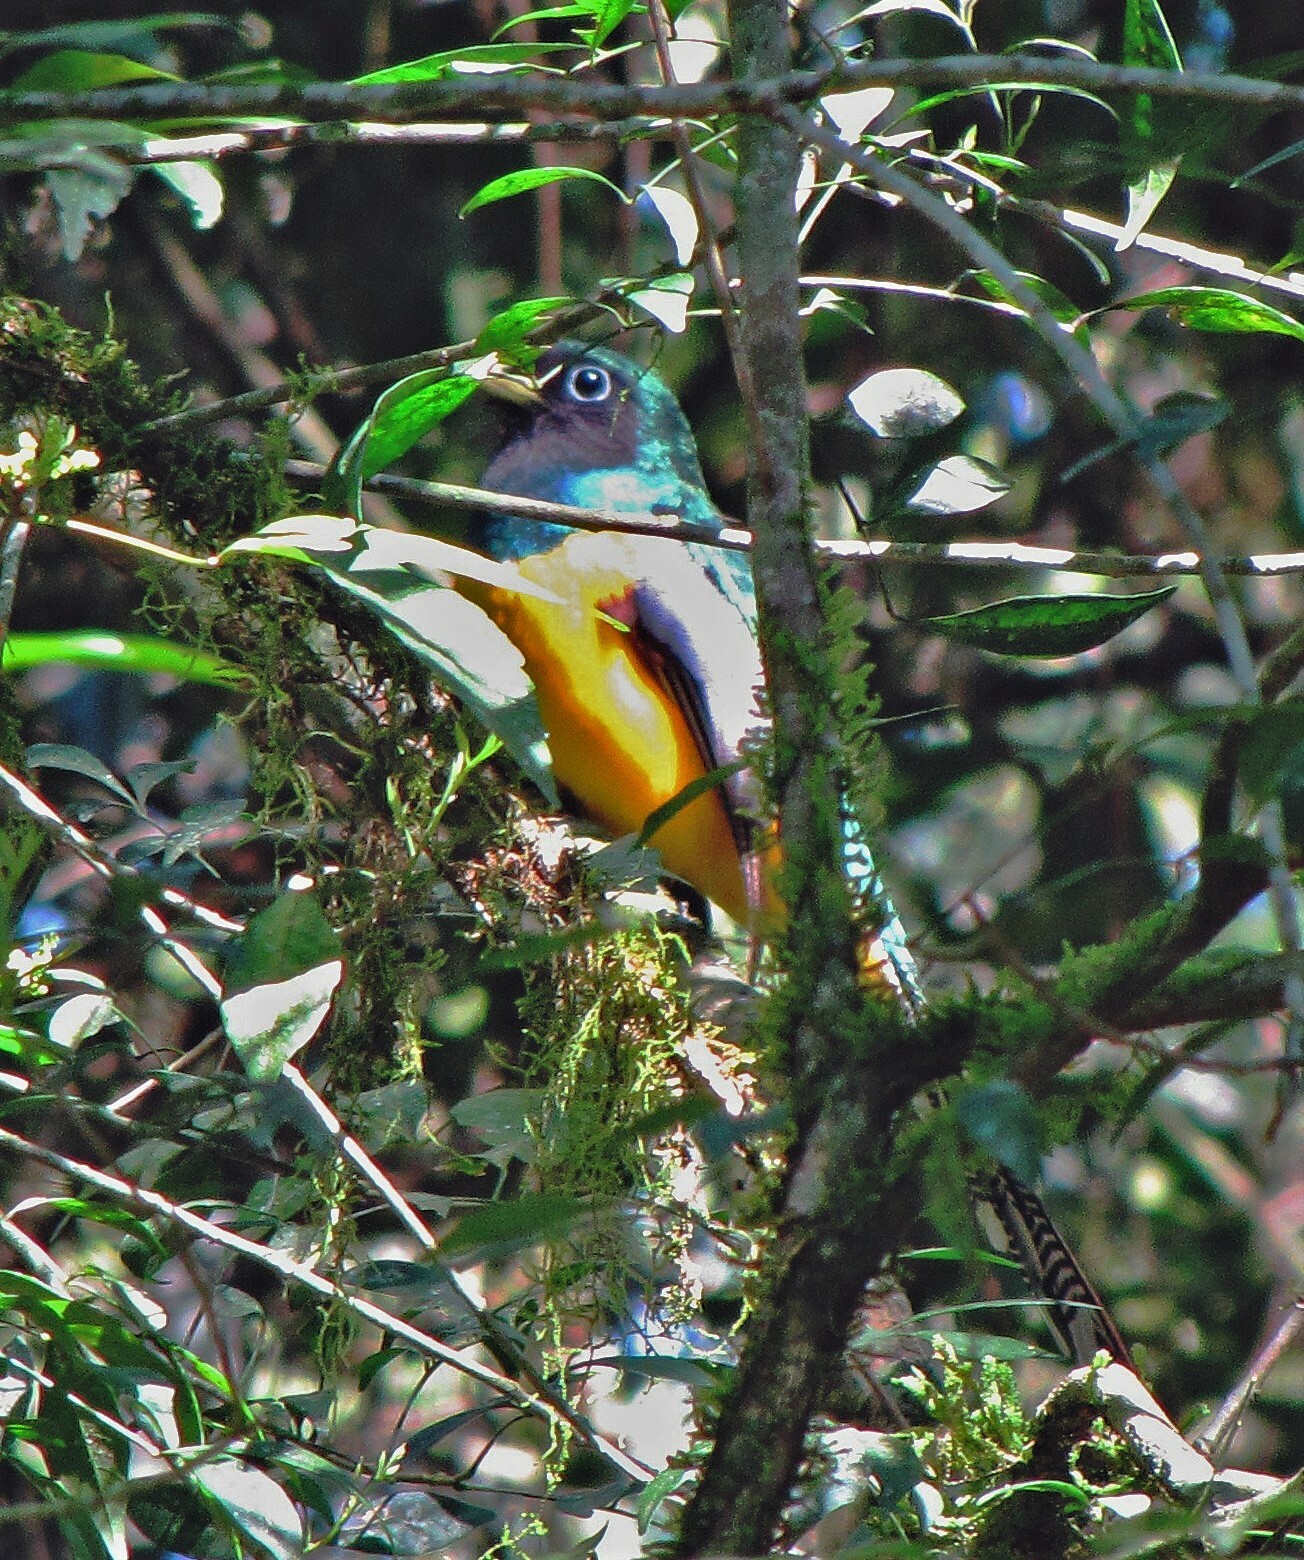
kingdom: Animalia
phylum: Chordata
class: Aves
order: Trogoniformes
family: Trogonidae
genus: Trogon
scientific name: Trogon rufus
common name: Black-throated trogon
